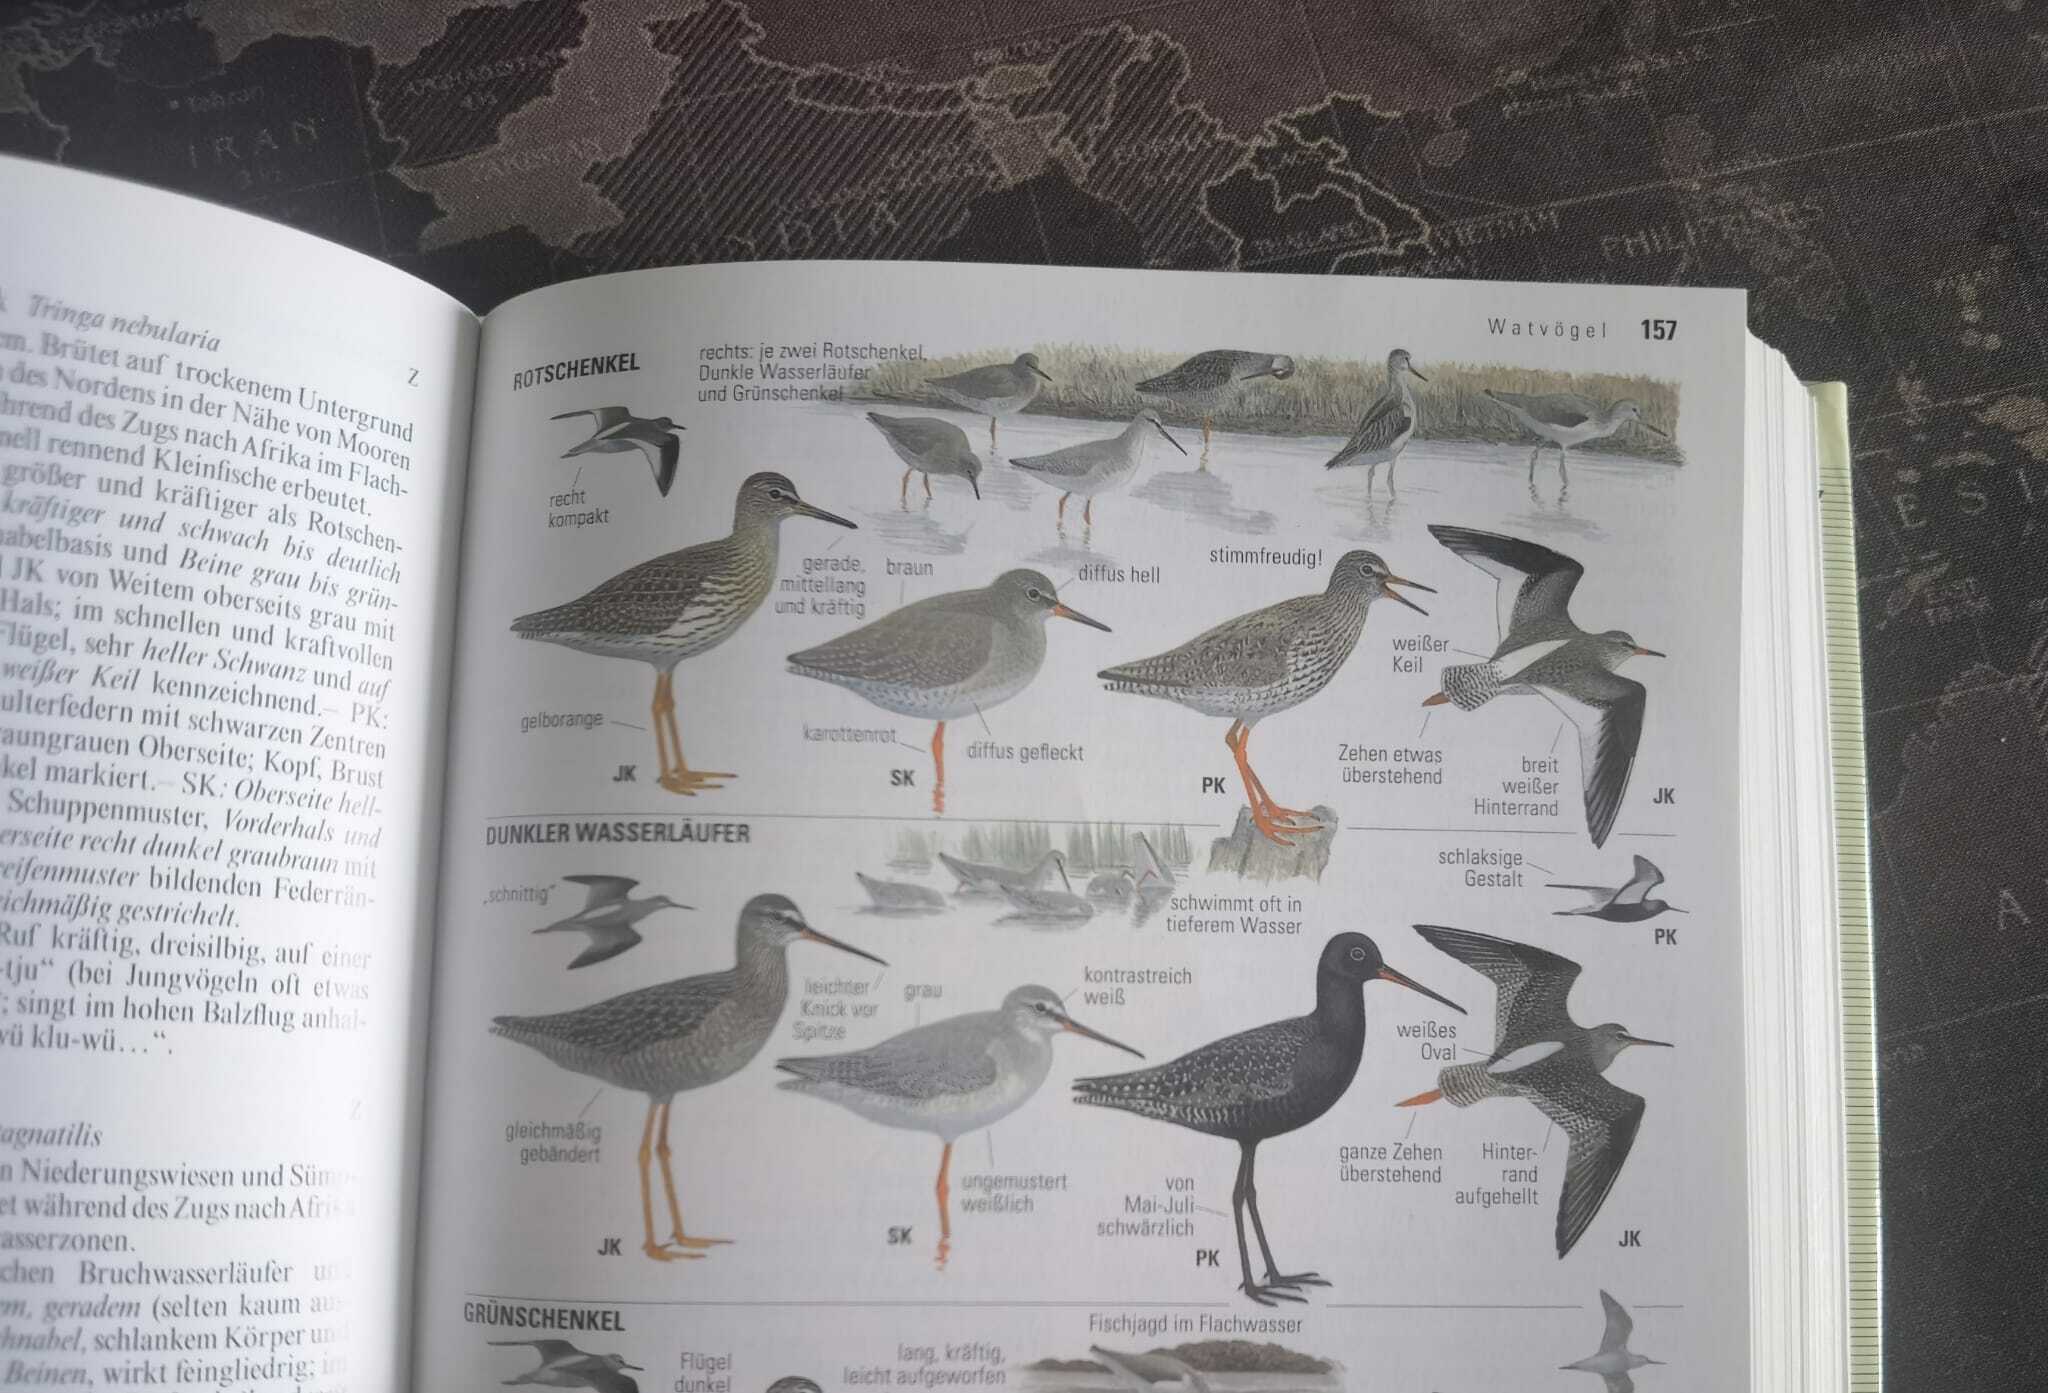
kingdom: Animalia
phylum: Chordata
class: Aves
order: Charadriiformes
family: Scolopacidae
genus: Tringa
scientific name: Tringa erythropus
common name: Spotted redshank
